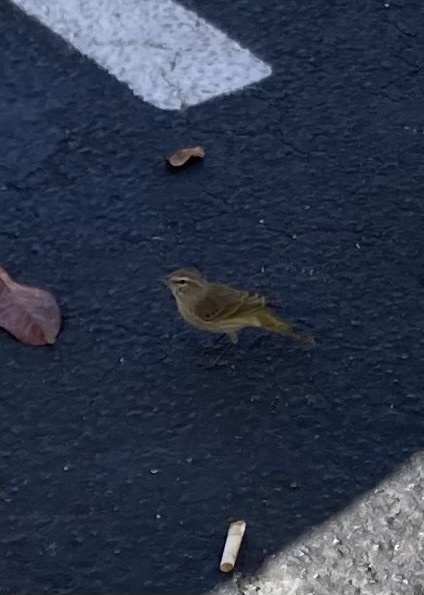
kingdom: Animalia
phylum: Chordata
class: Aves
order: Passeriformes
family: Parulidae
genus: Setophaga
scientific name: Setophaga palmarum
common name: Palm warbler
